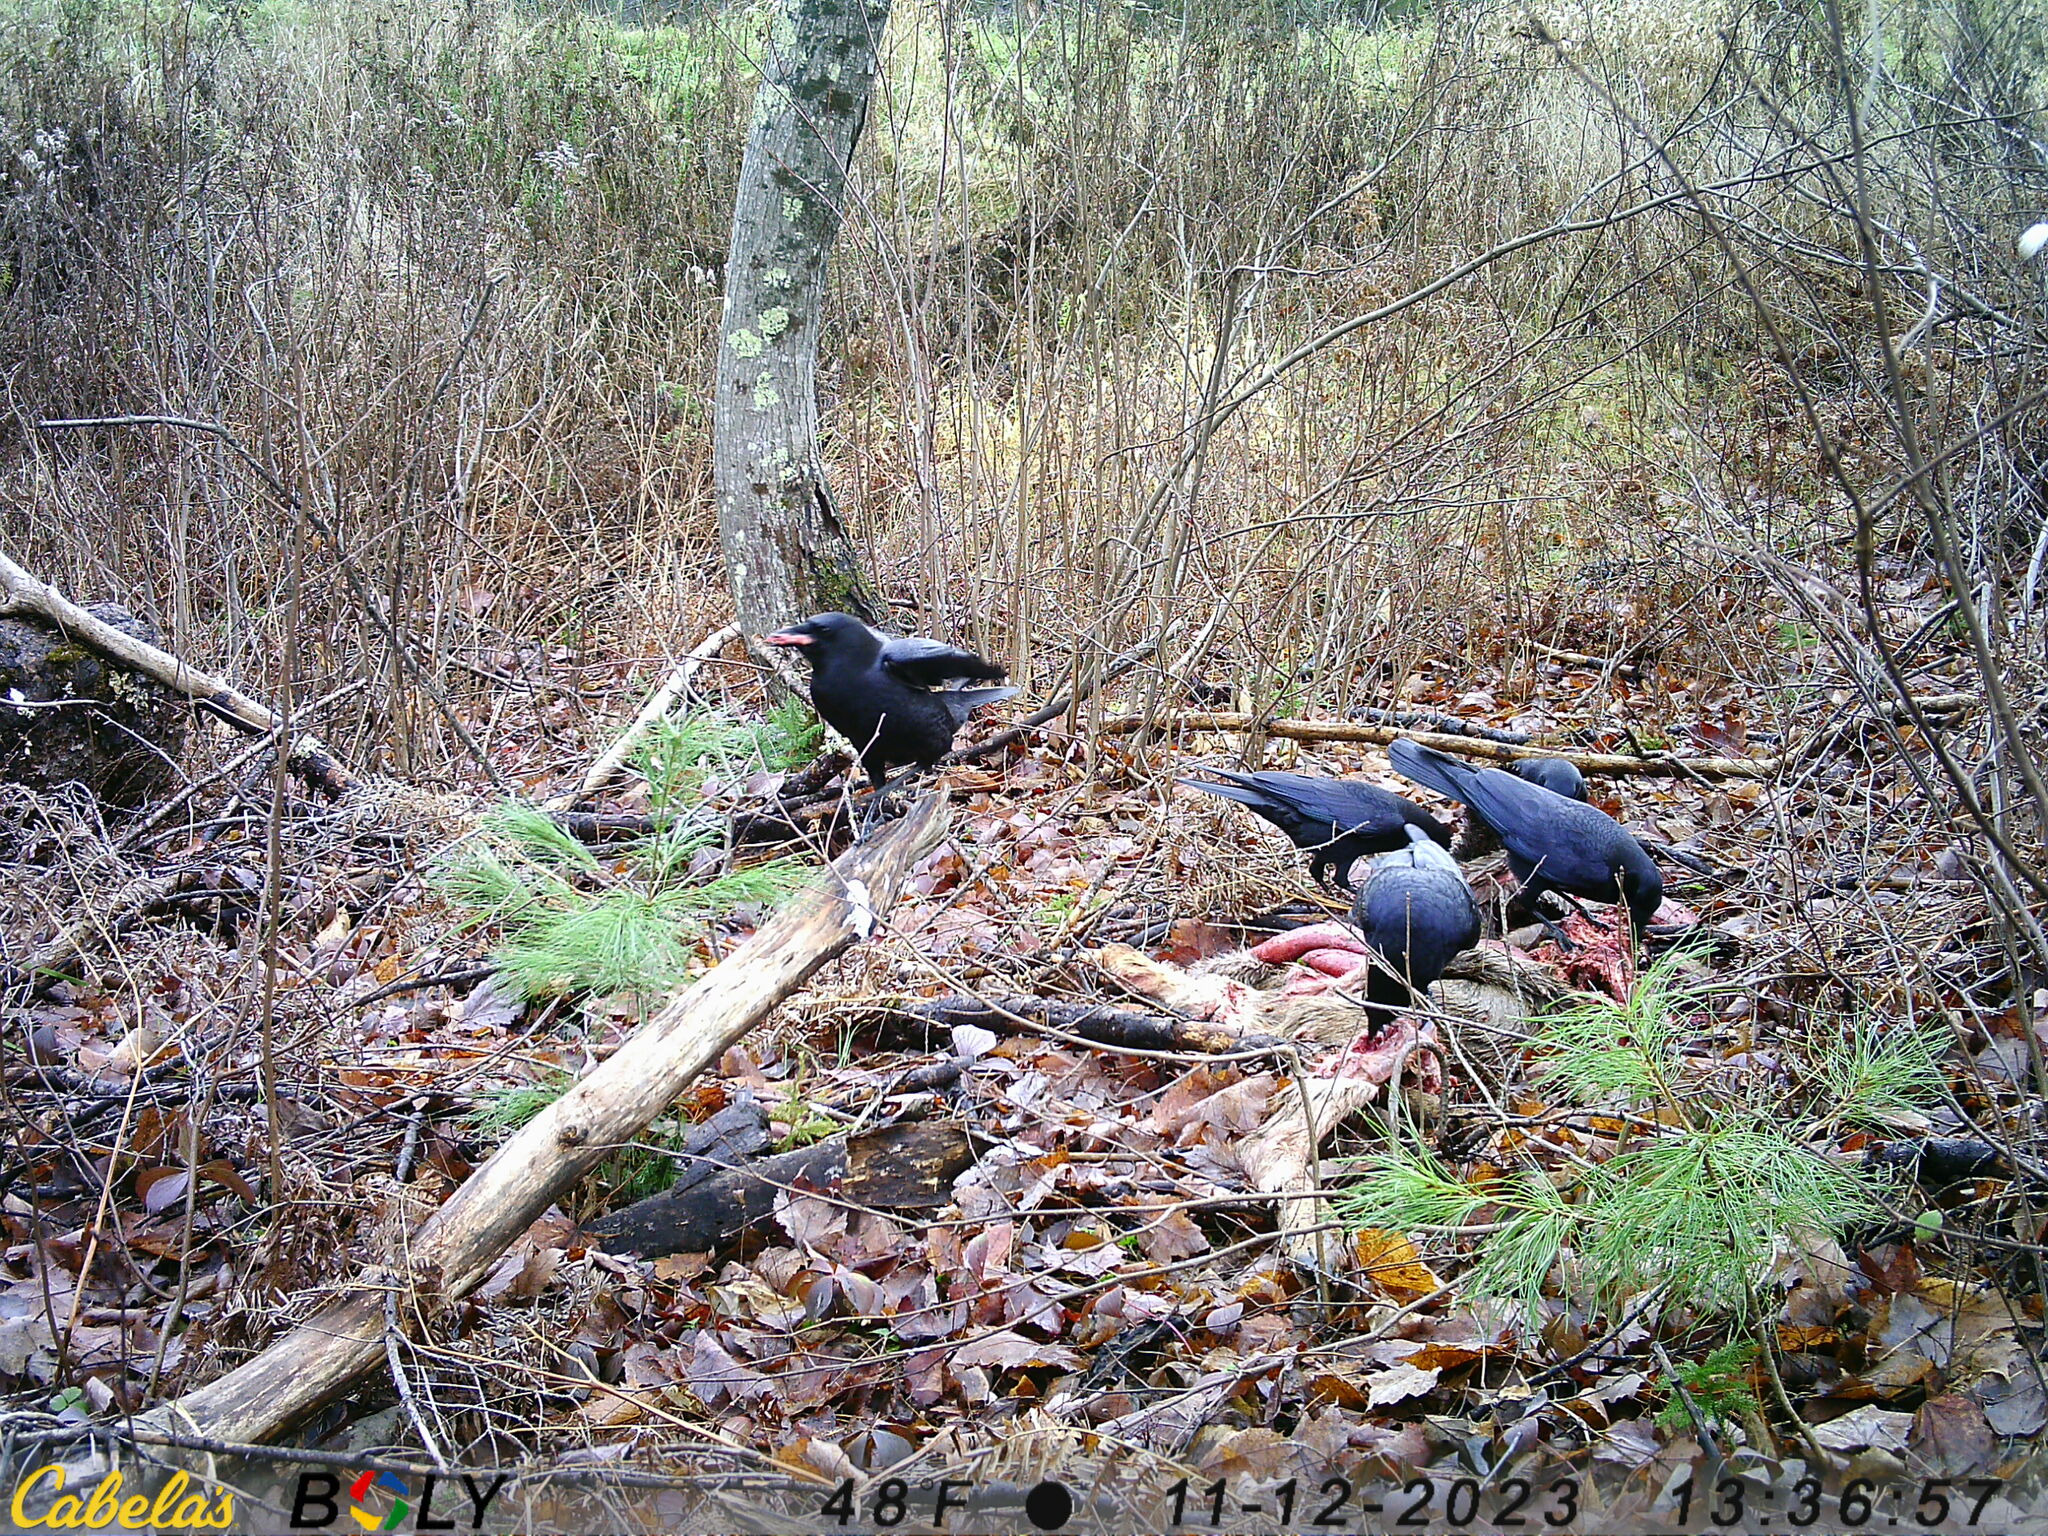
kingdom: Animalia
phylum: Chordata
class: Aves
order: Passeriformes
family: Corvidae
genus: Corvus
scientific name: Corvus brachyrhynchos
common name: American crow
